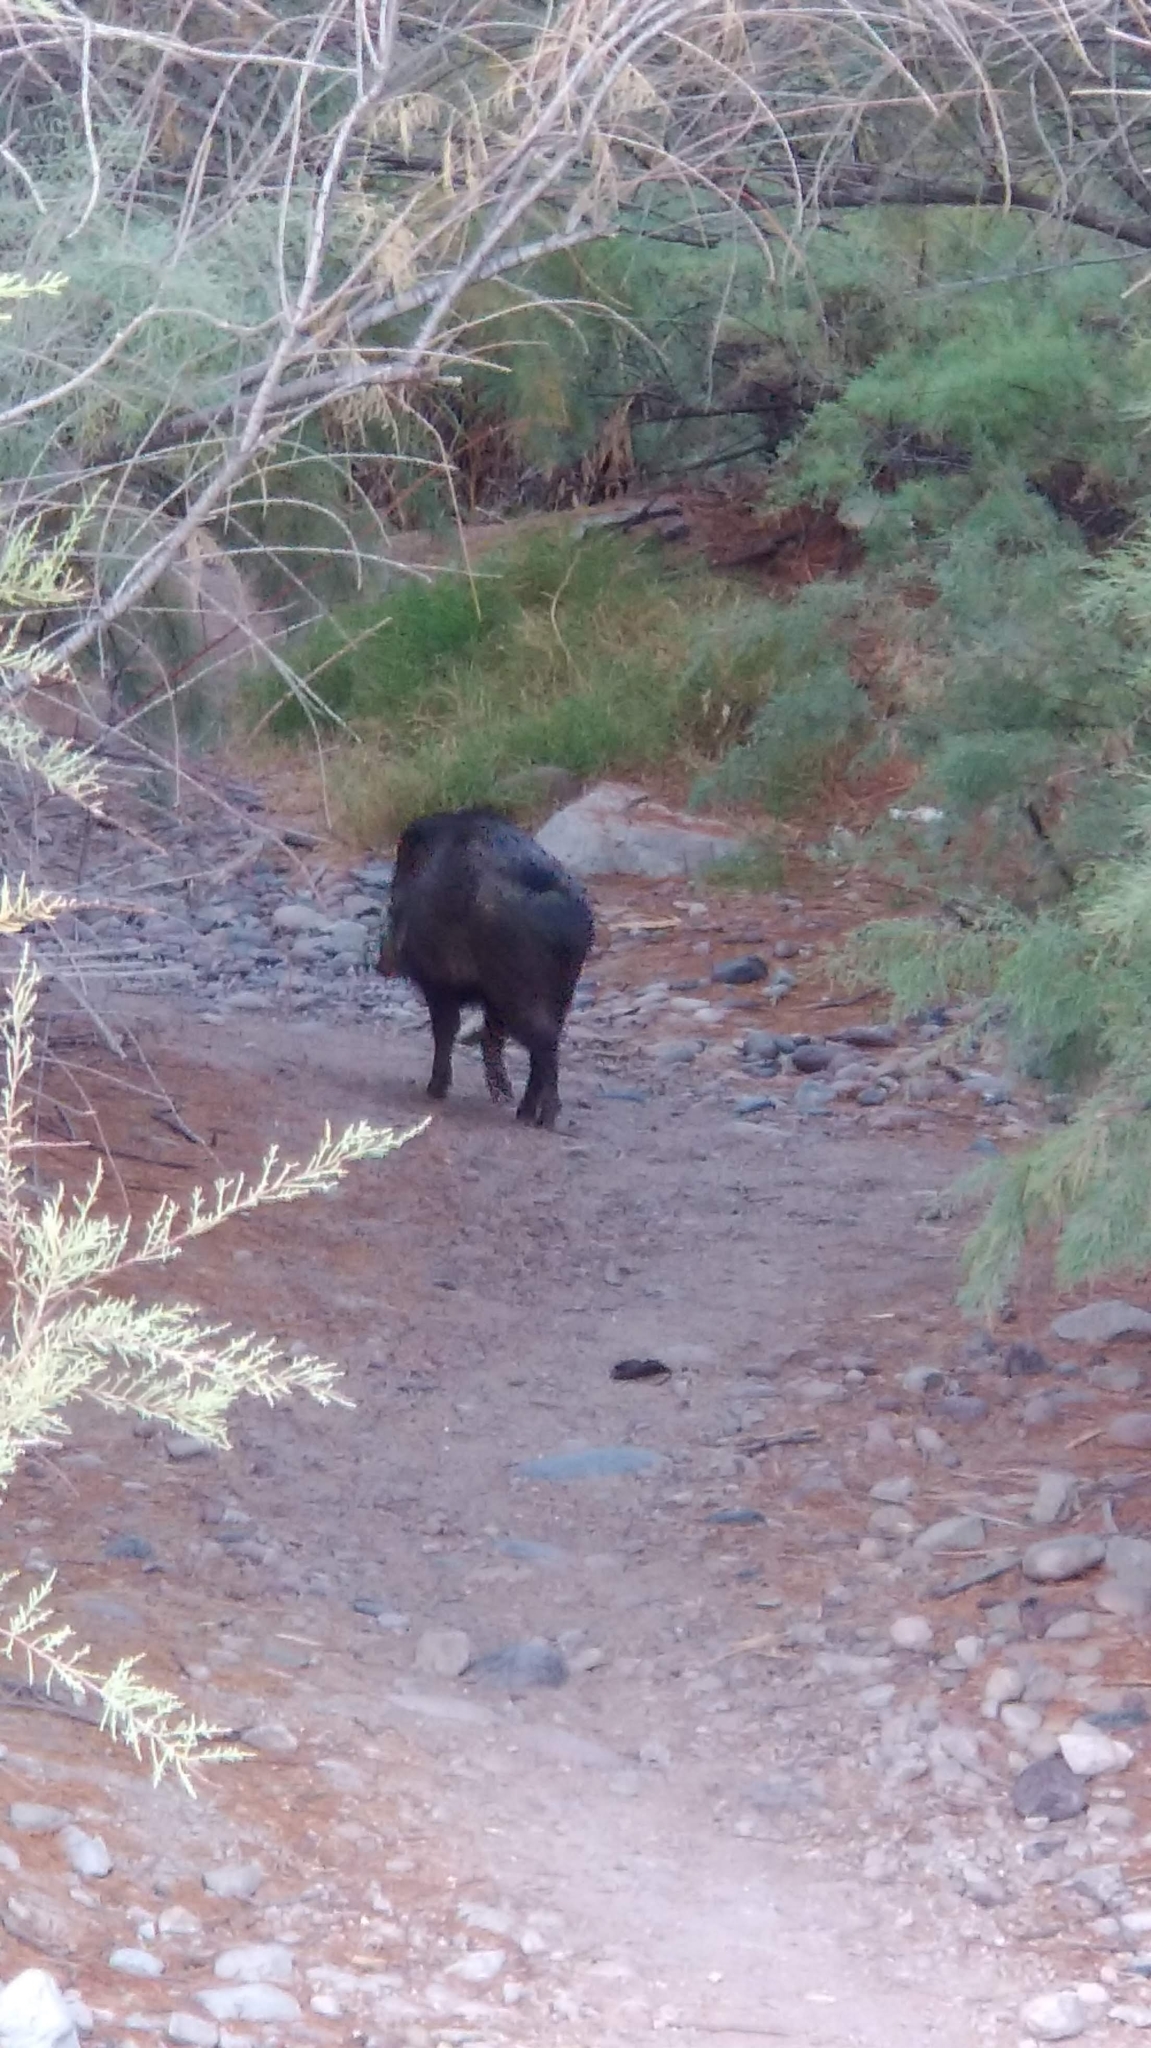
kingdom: Animalia
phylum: Chordata
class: Mammalia
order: Artiodactyla
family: Tayassuidae
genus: Pecari
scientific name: Pecari tajacu
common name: Collared peccary
